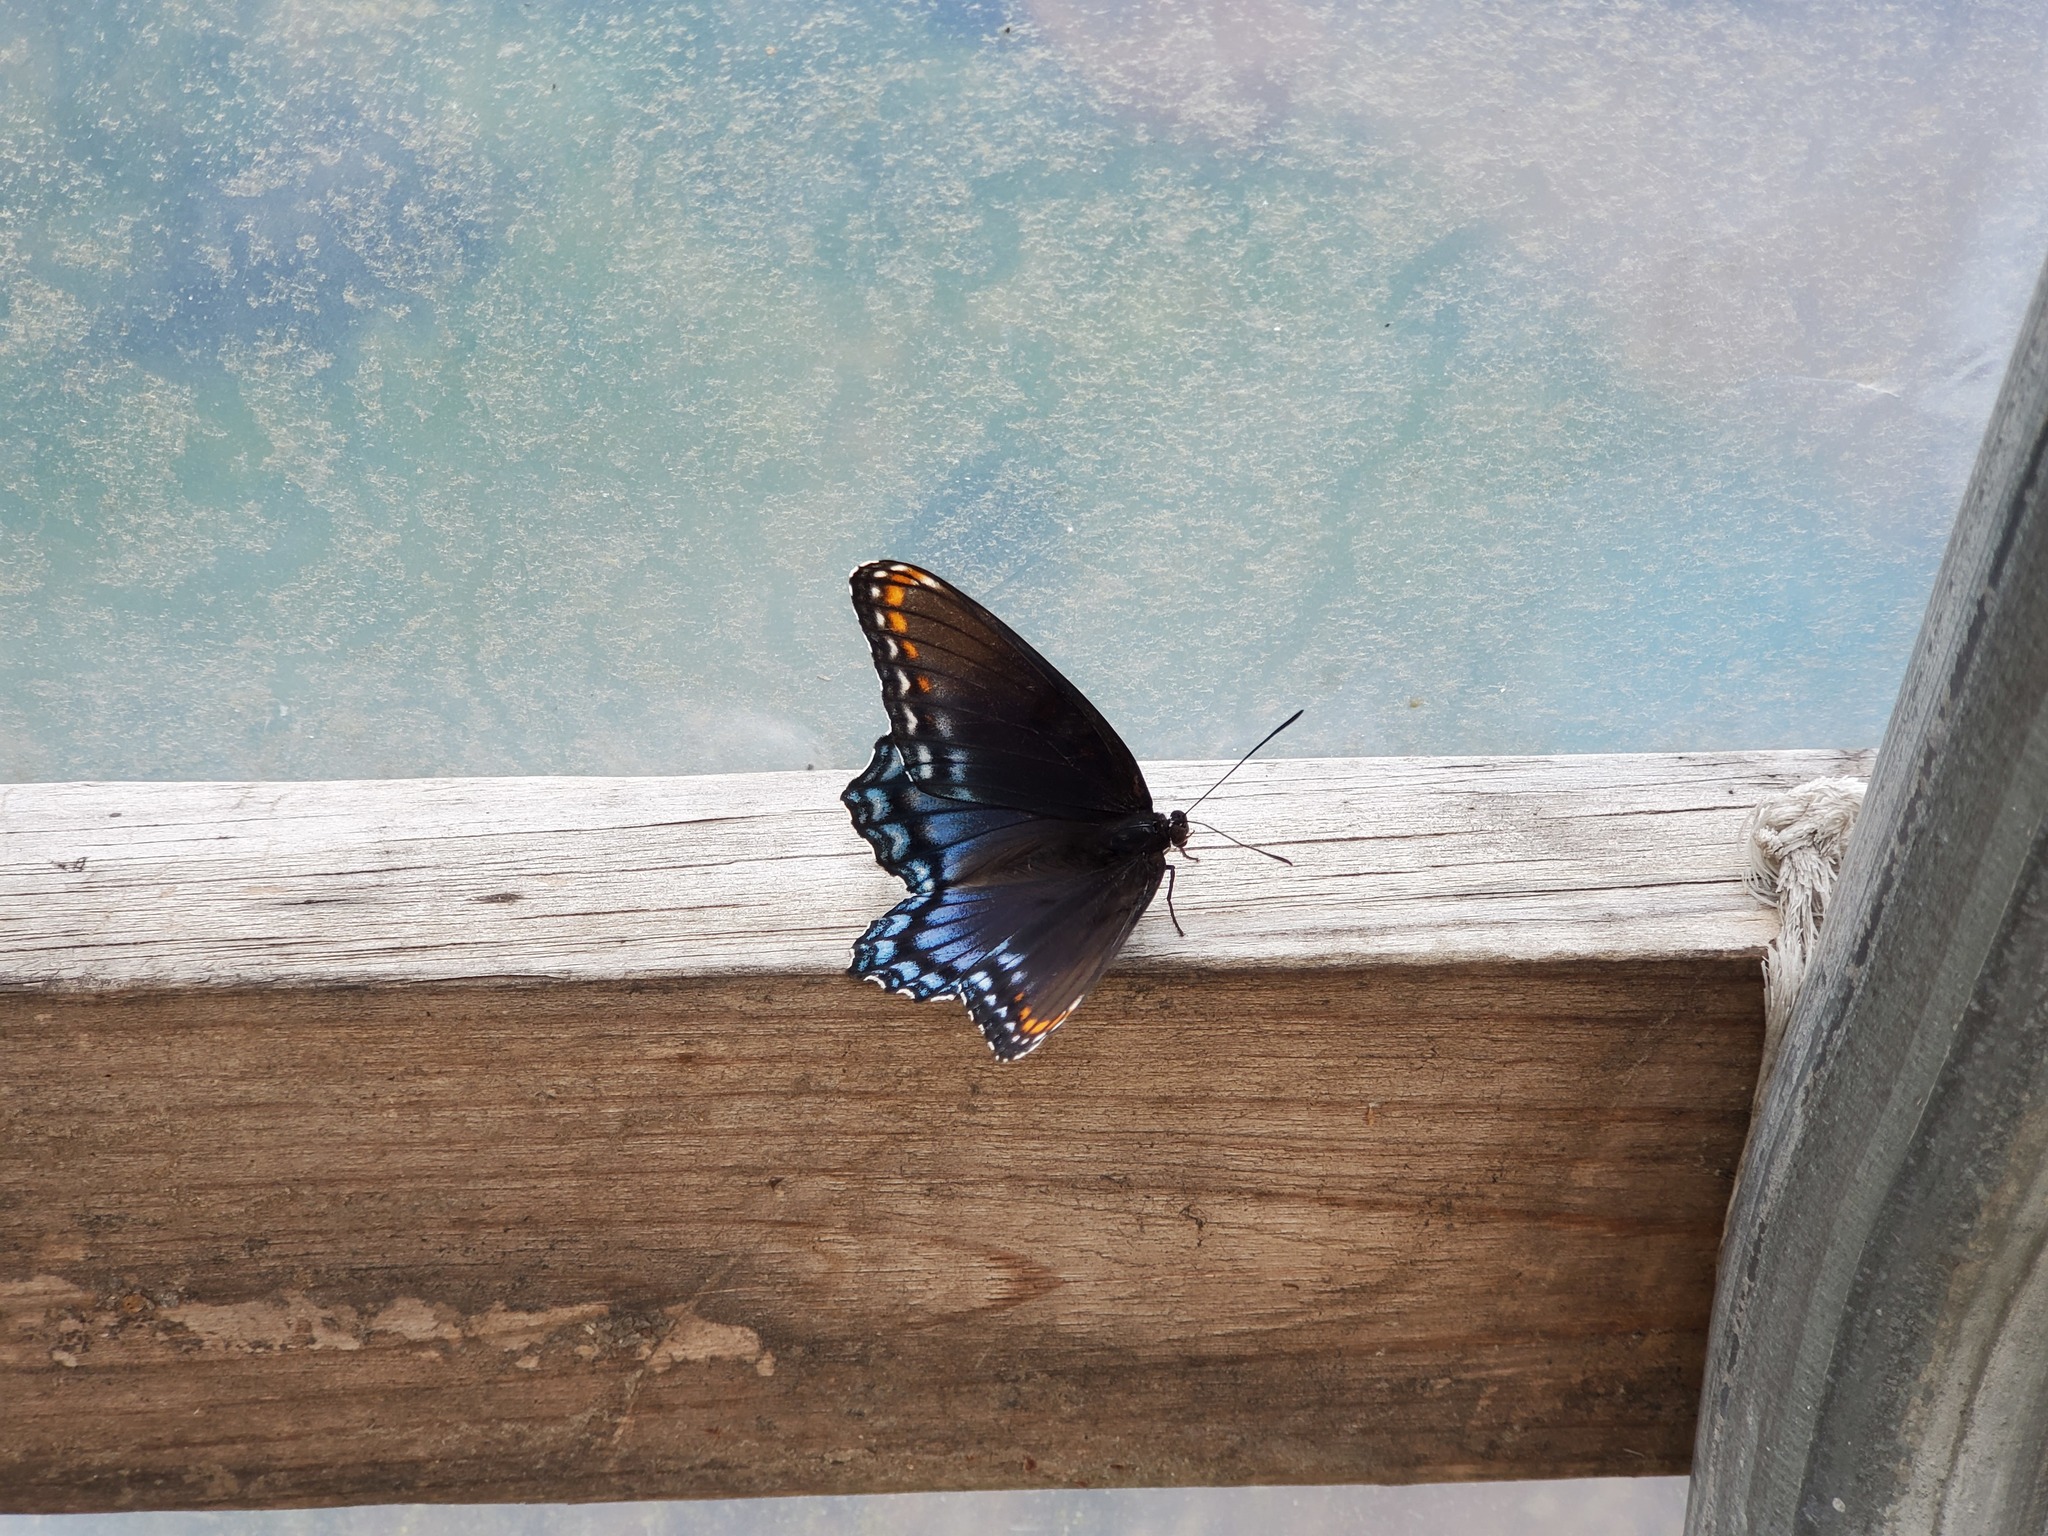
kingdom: Animalia
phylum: Arthropoda
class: Insecta
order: Lepidoptera
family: Nymphalidae
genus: Limenitis
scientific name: Limenitis astyanax
